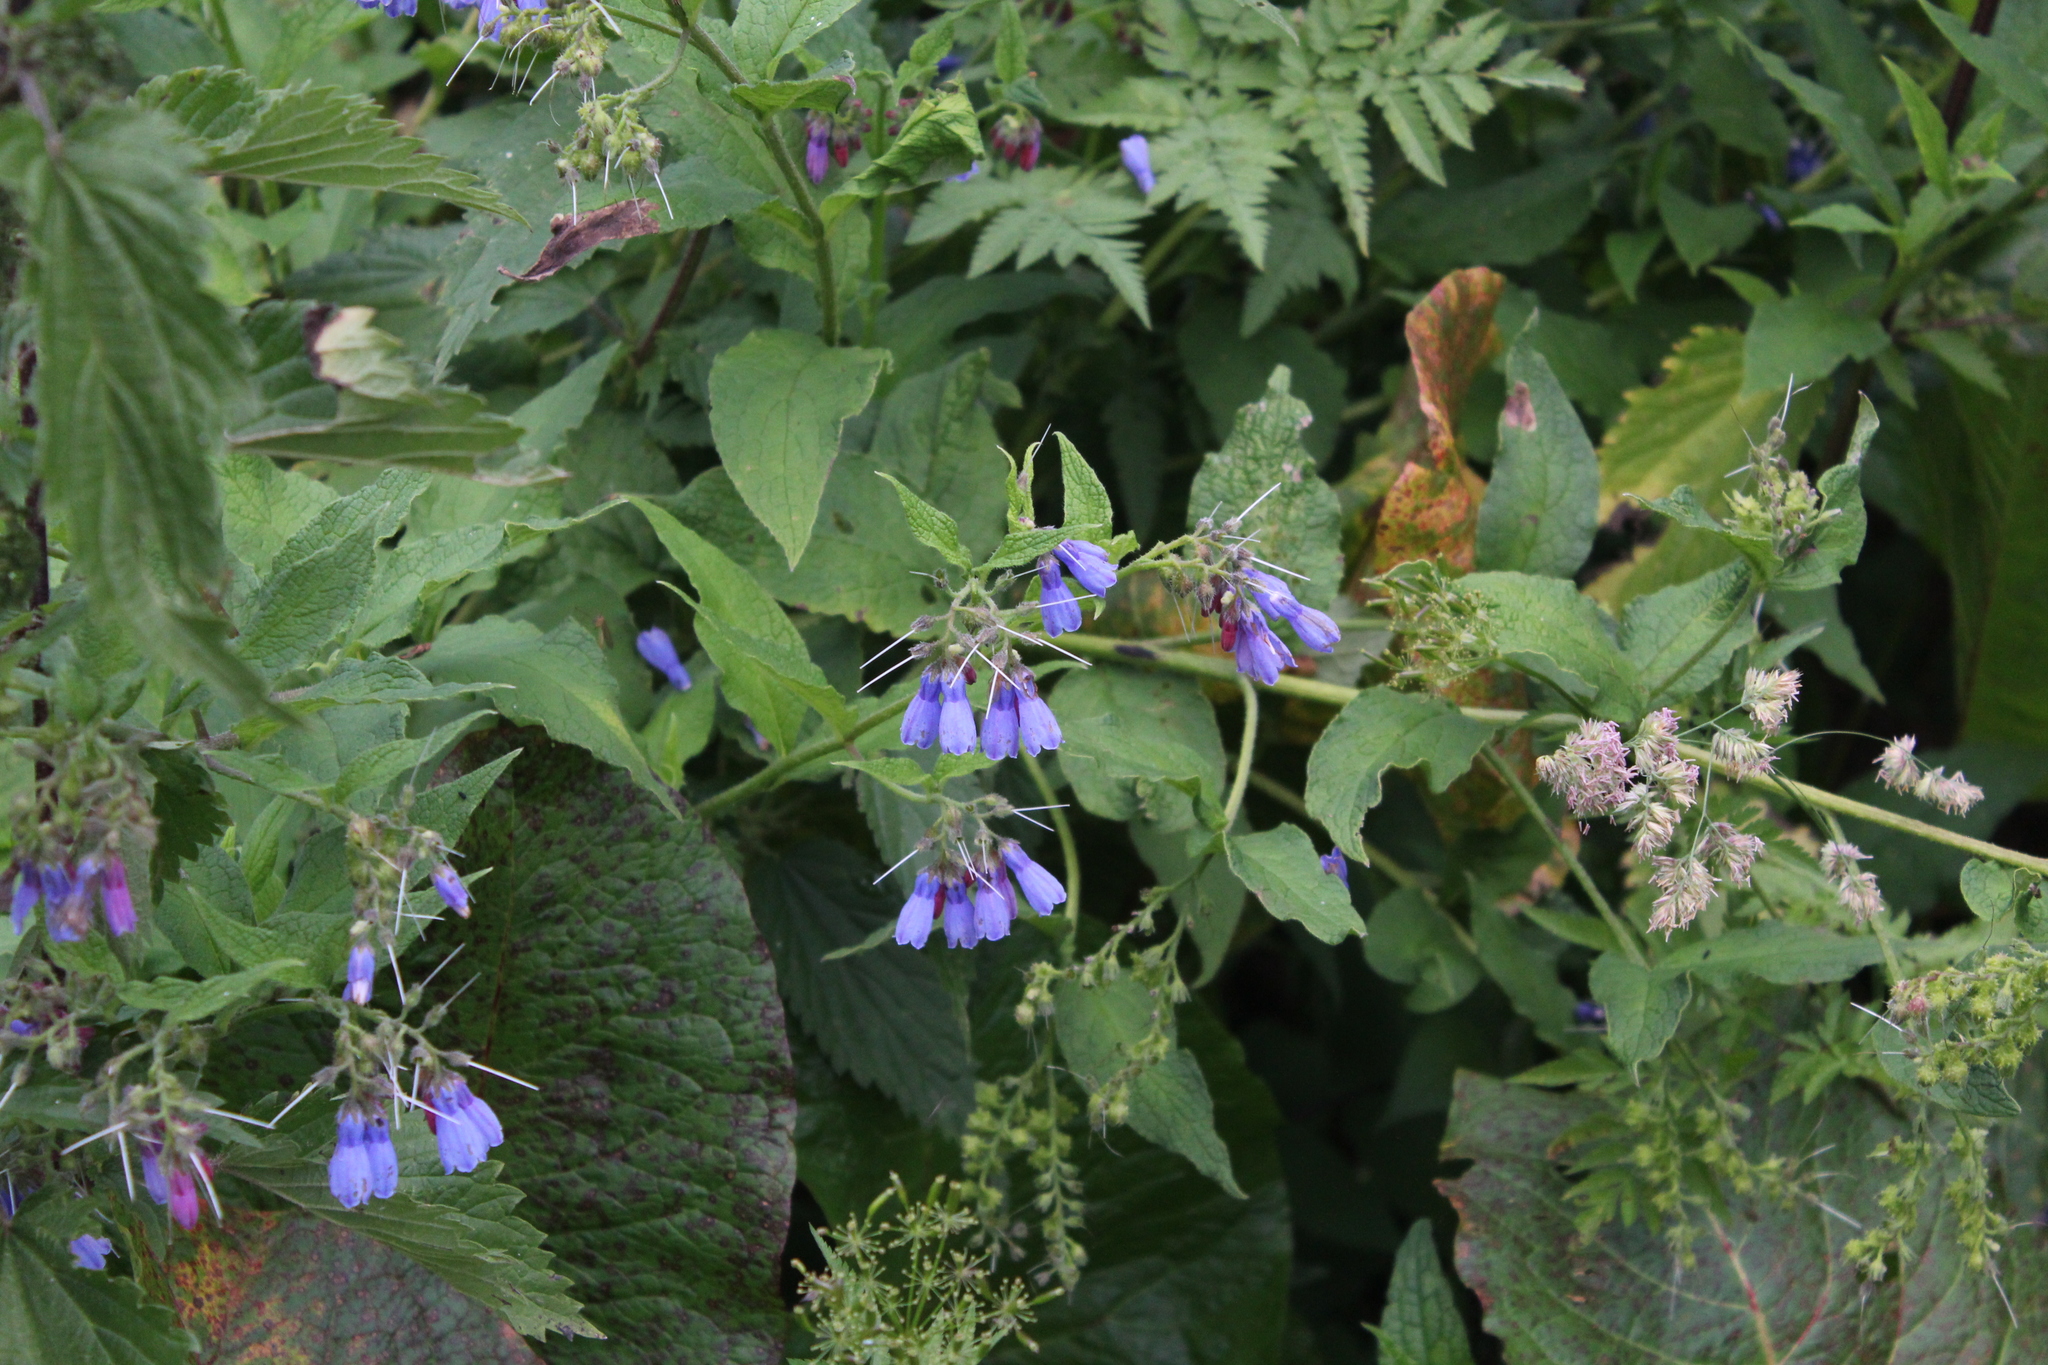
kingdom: Plantae
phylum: Tracheophyta
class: Magnoliopsida
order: Boraginales
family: Boraginaceae
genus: Symphytum
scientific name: Symphytum asperum
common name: Prickly comfrey
